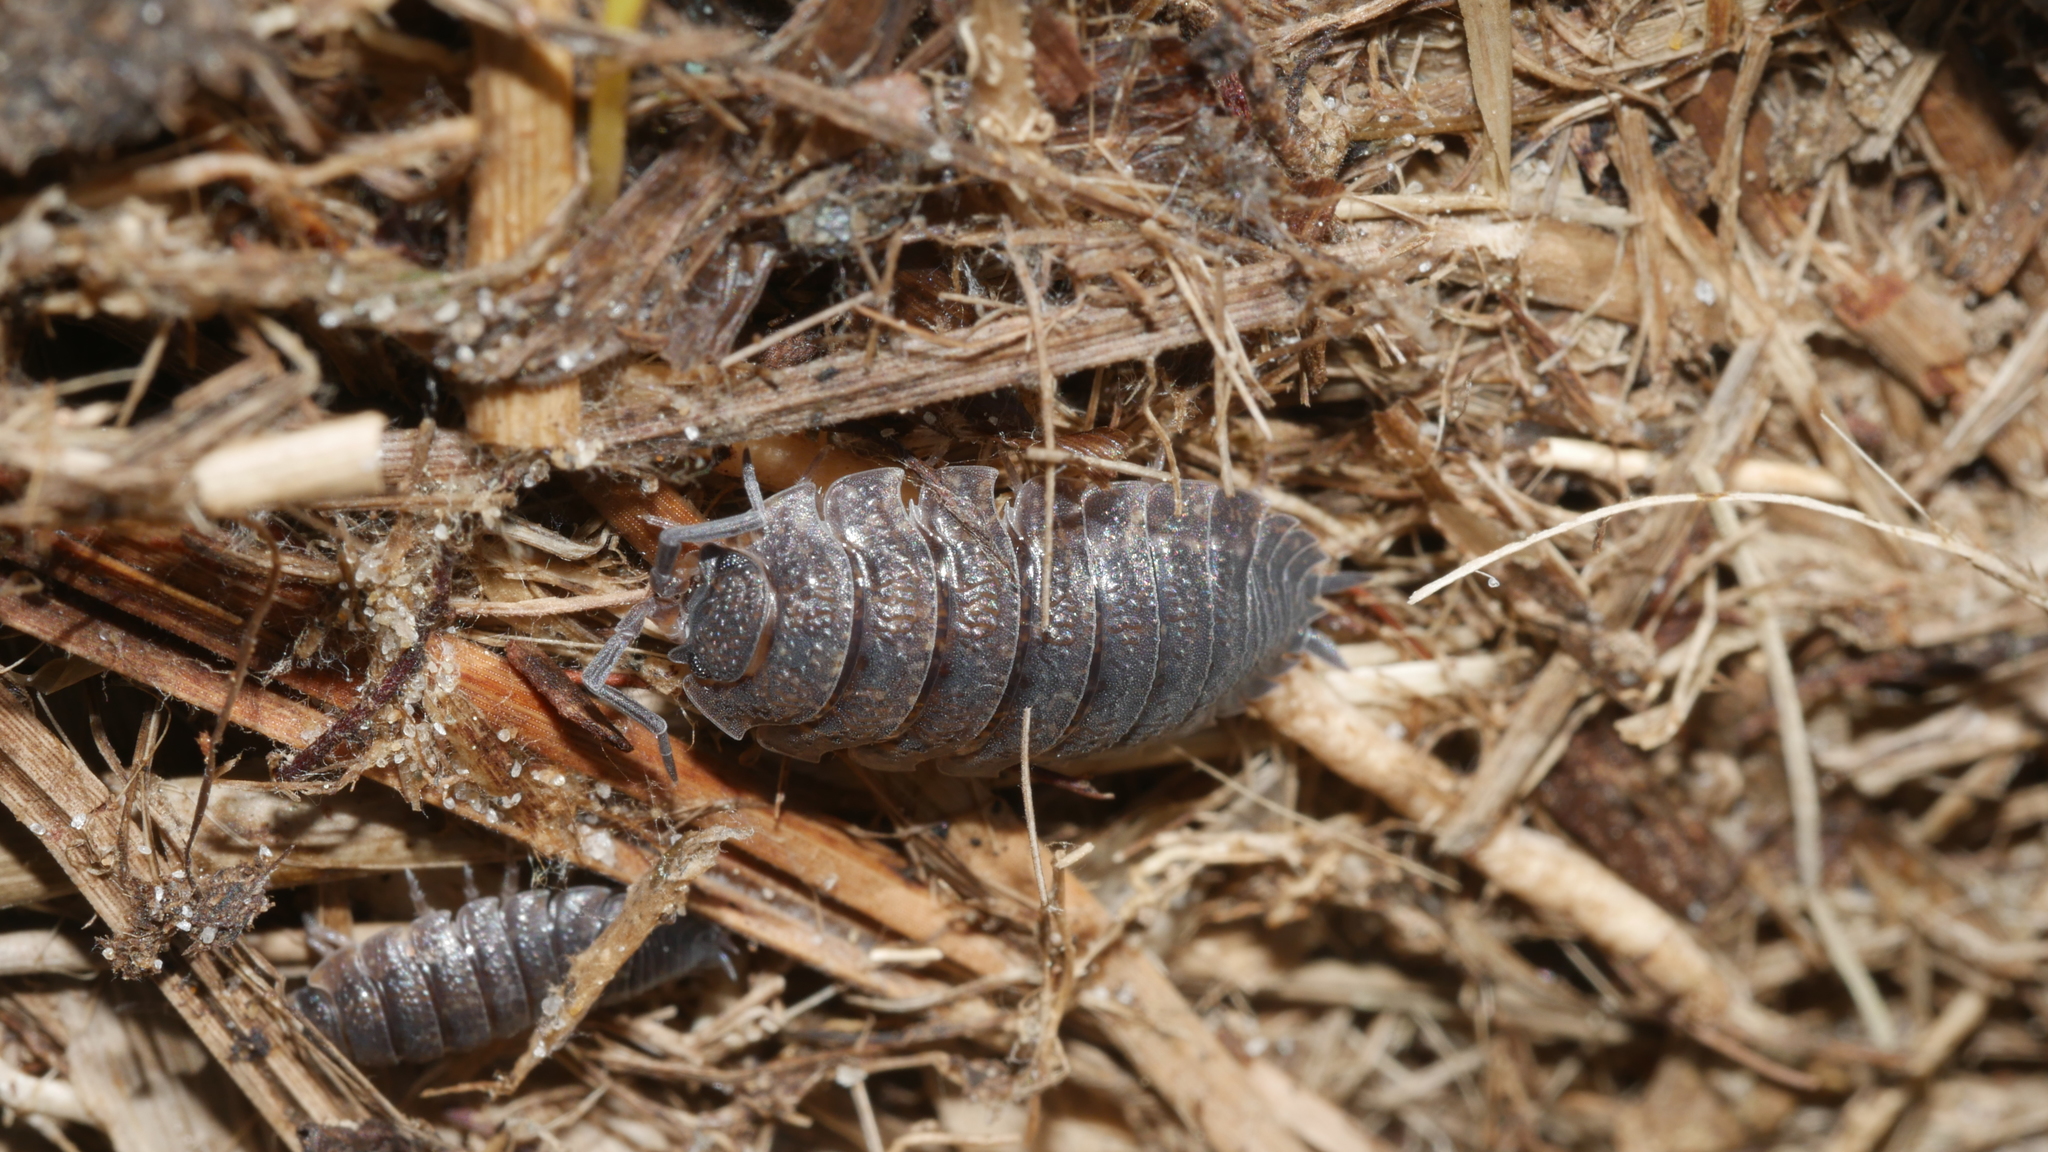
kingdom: Animalia
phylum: Arthropoda
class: Malacostraca
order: Isopoda
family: Porcellionidae
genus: Porcellio
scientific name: Porcellio scaber
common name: Common rough woodlouse
